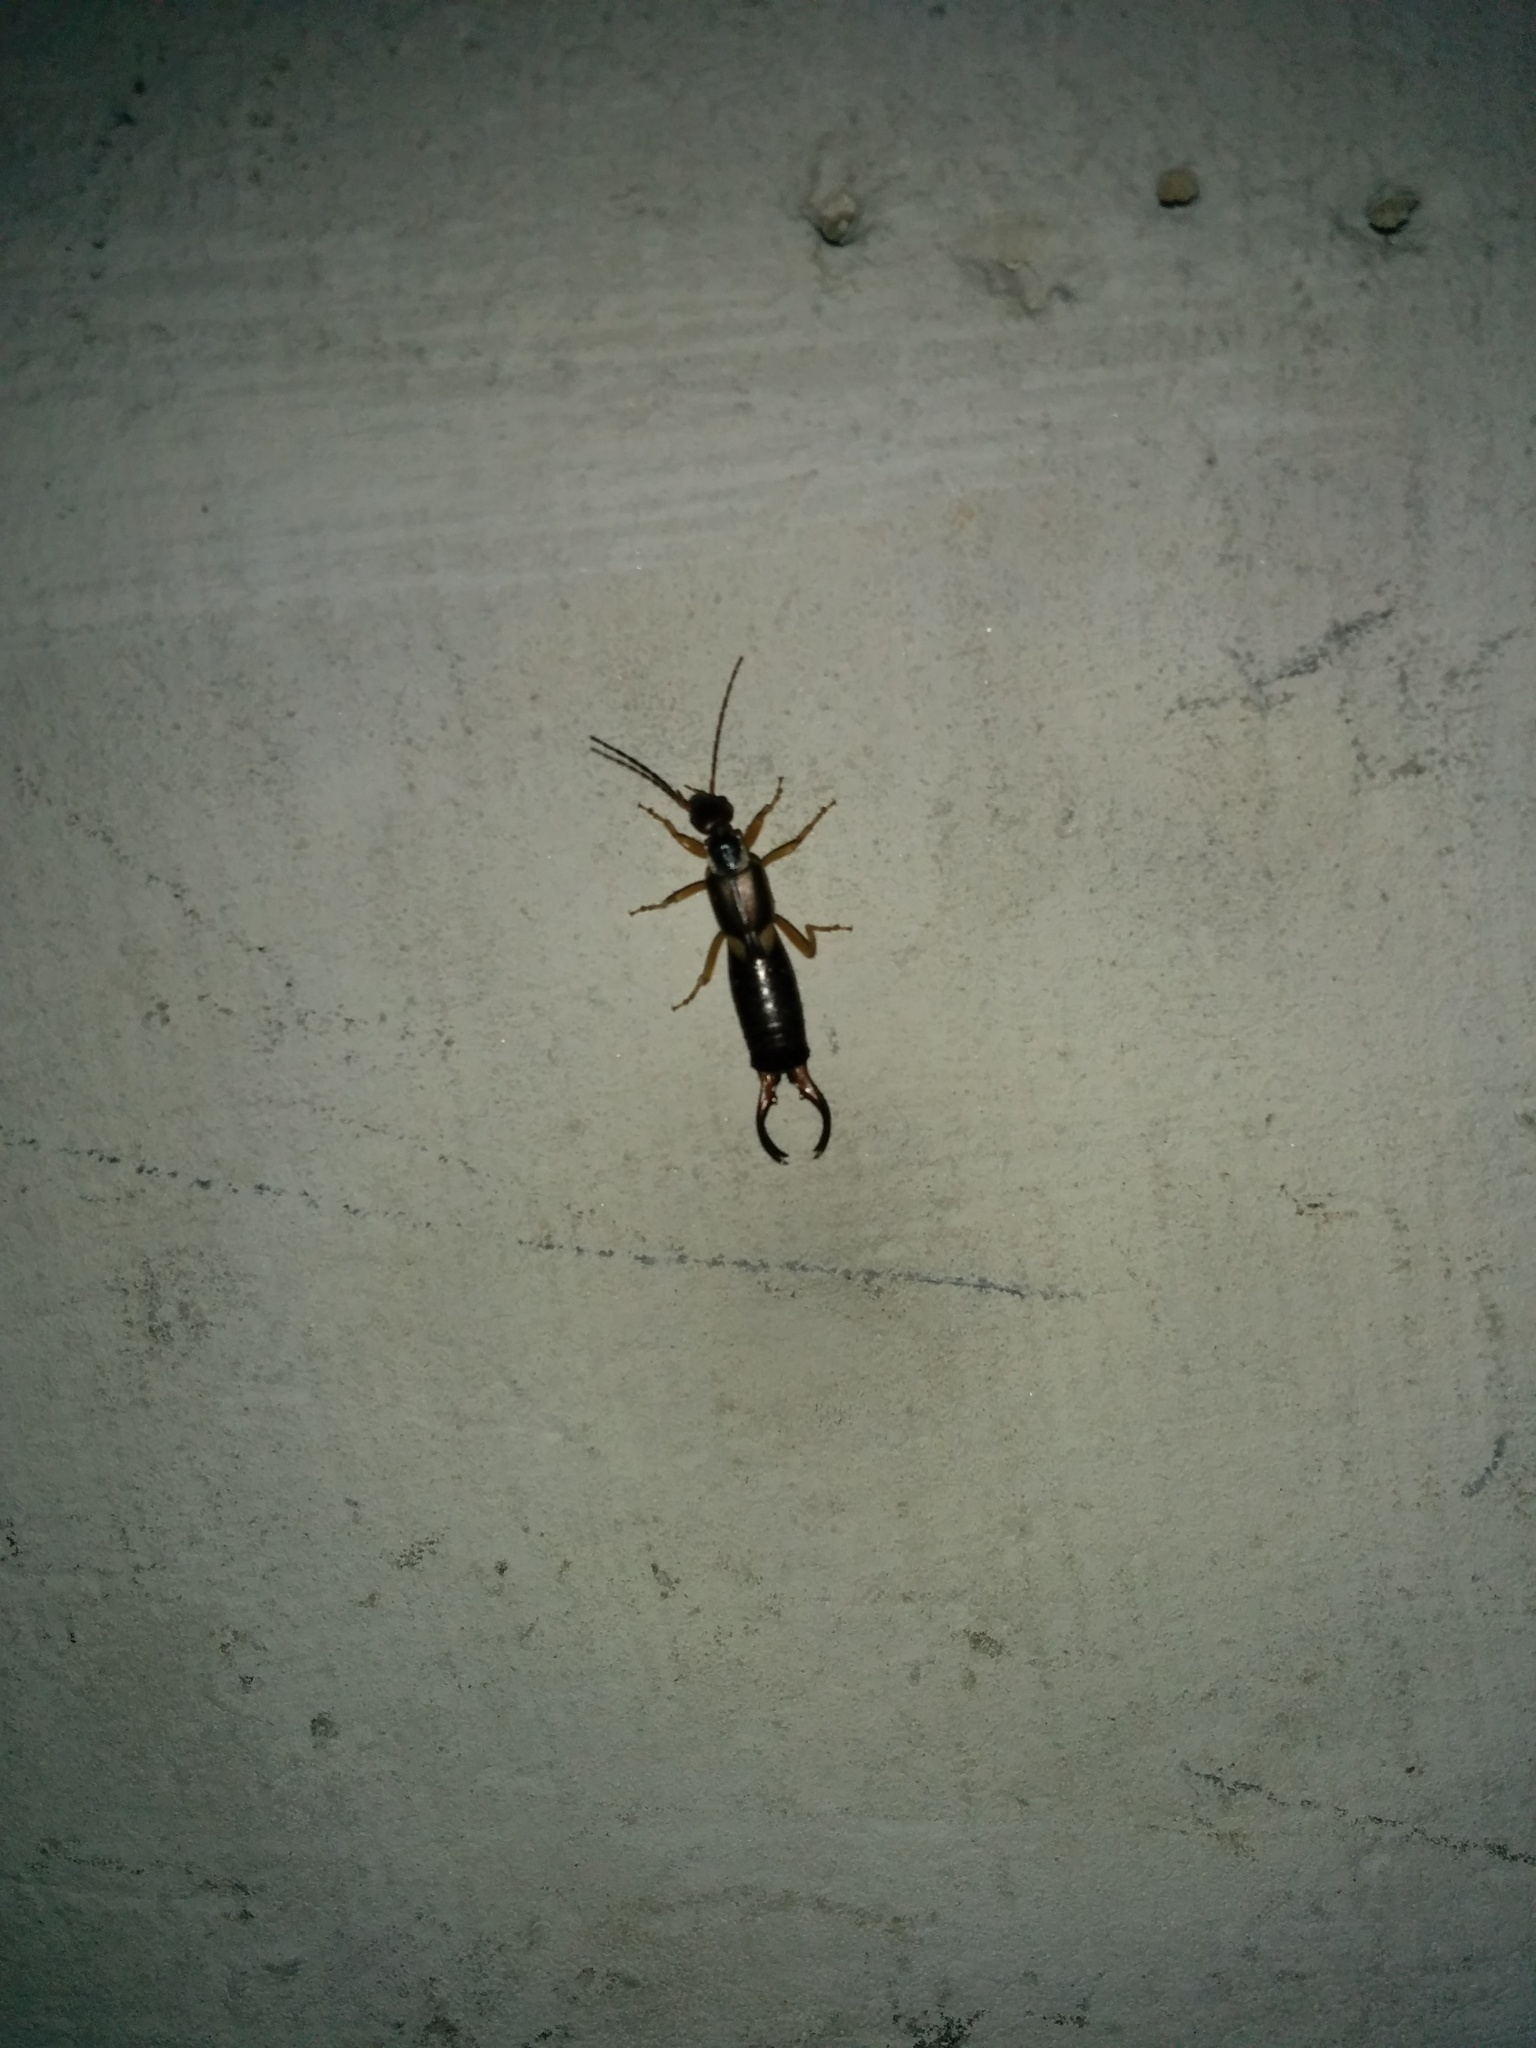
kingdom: Animalia
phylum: Arthropoda
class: Insecta
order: Dermaptera
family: Forficulidae
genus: Forficula
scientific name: Forficula
